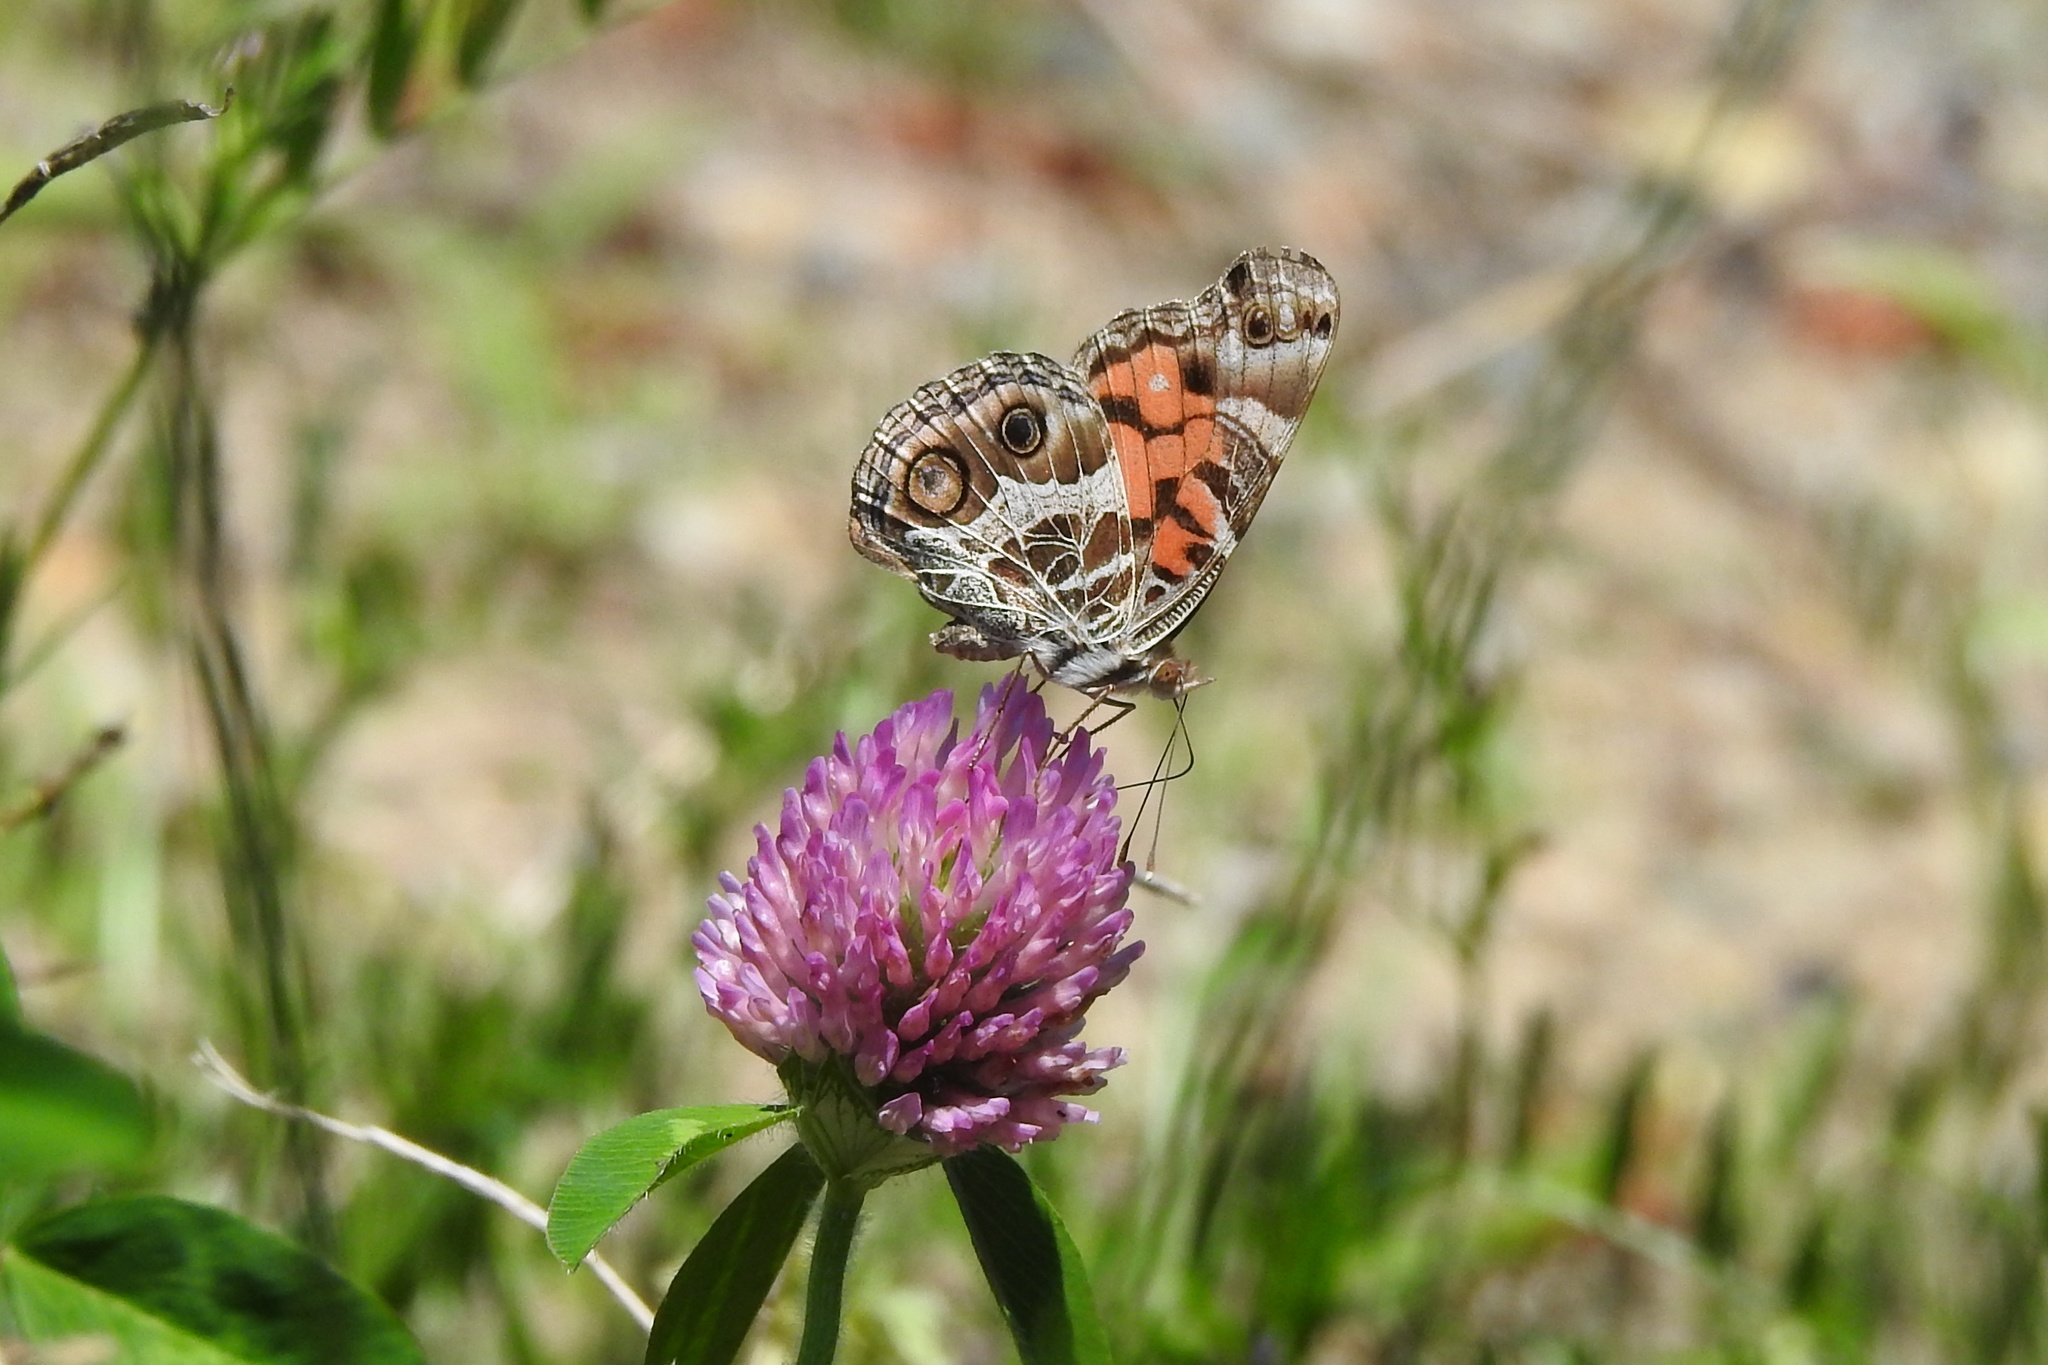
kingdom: Animalia
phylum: Arthropoda
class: Insecta
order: Lepidoptera
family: Nymphalidae
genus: Vanessa
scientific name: Vanessa virginiensis
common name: American lady
